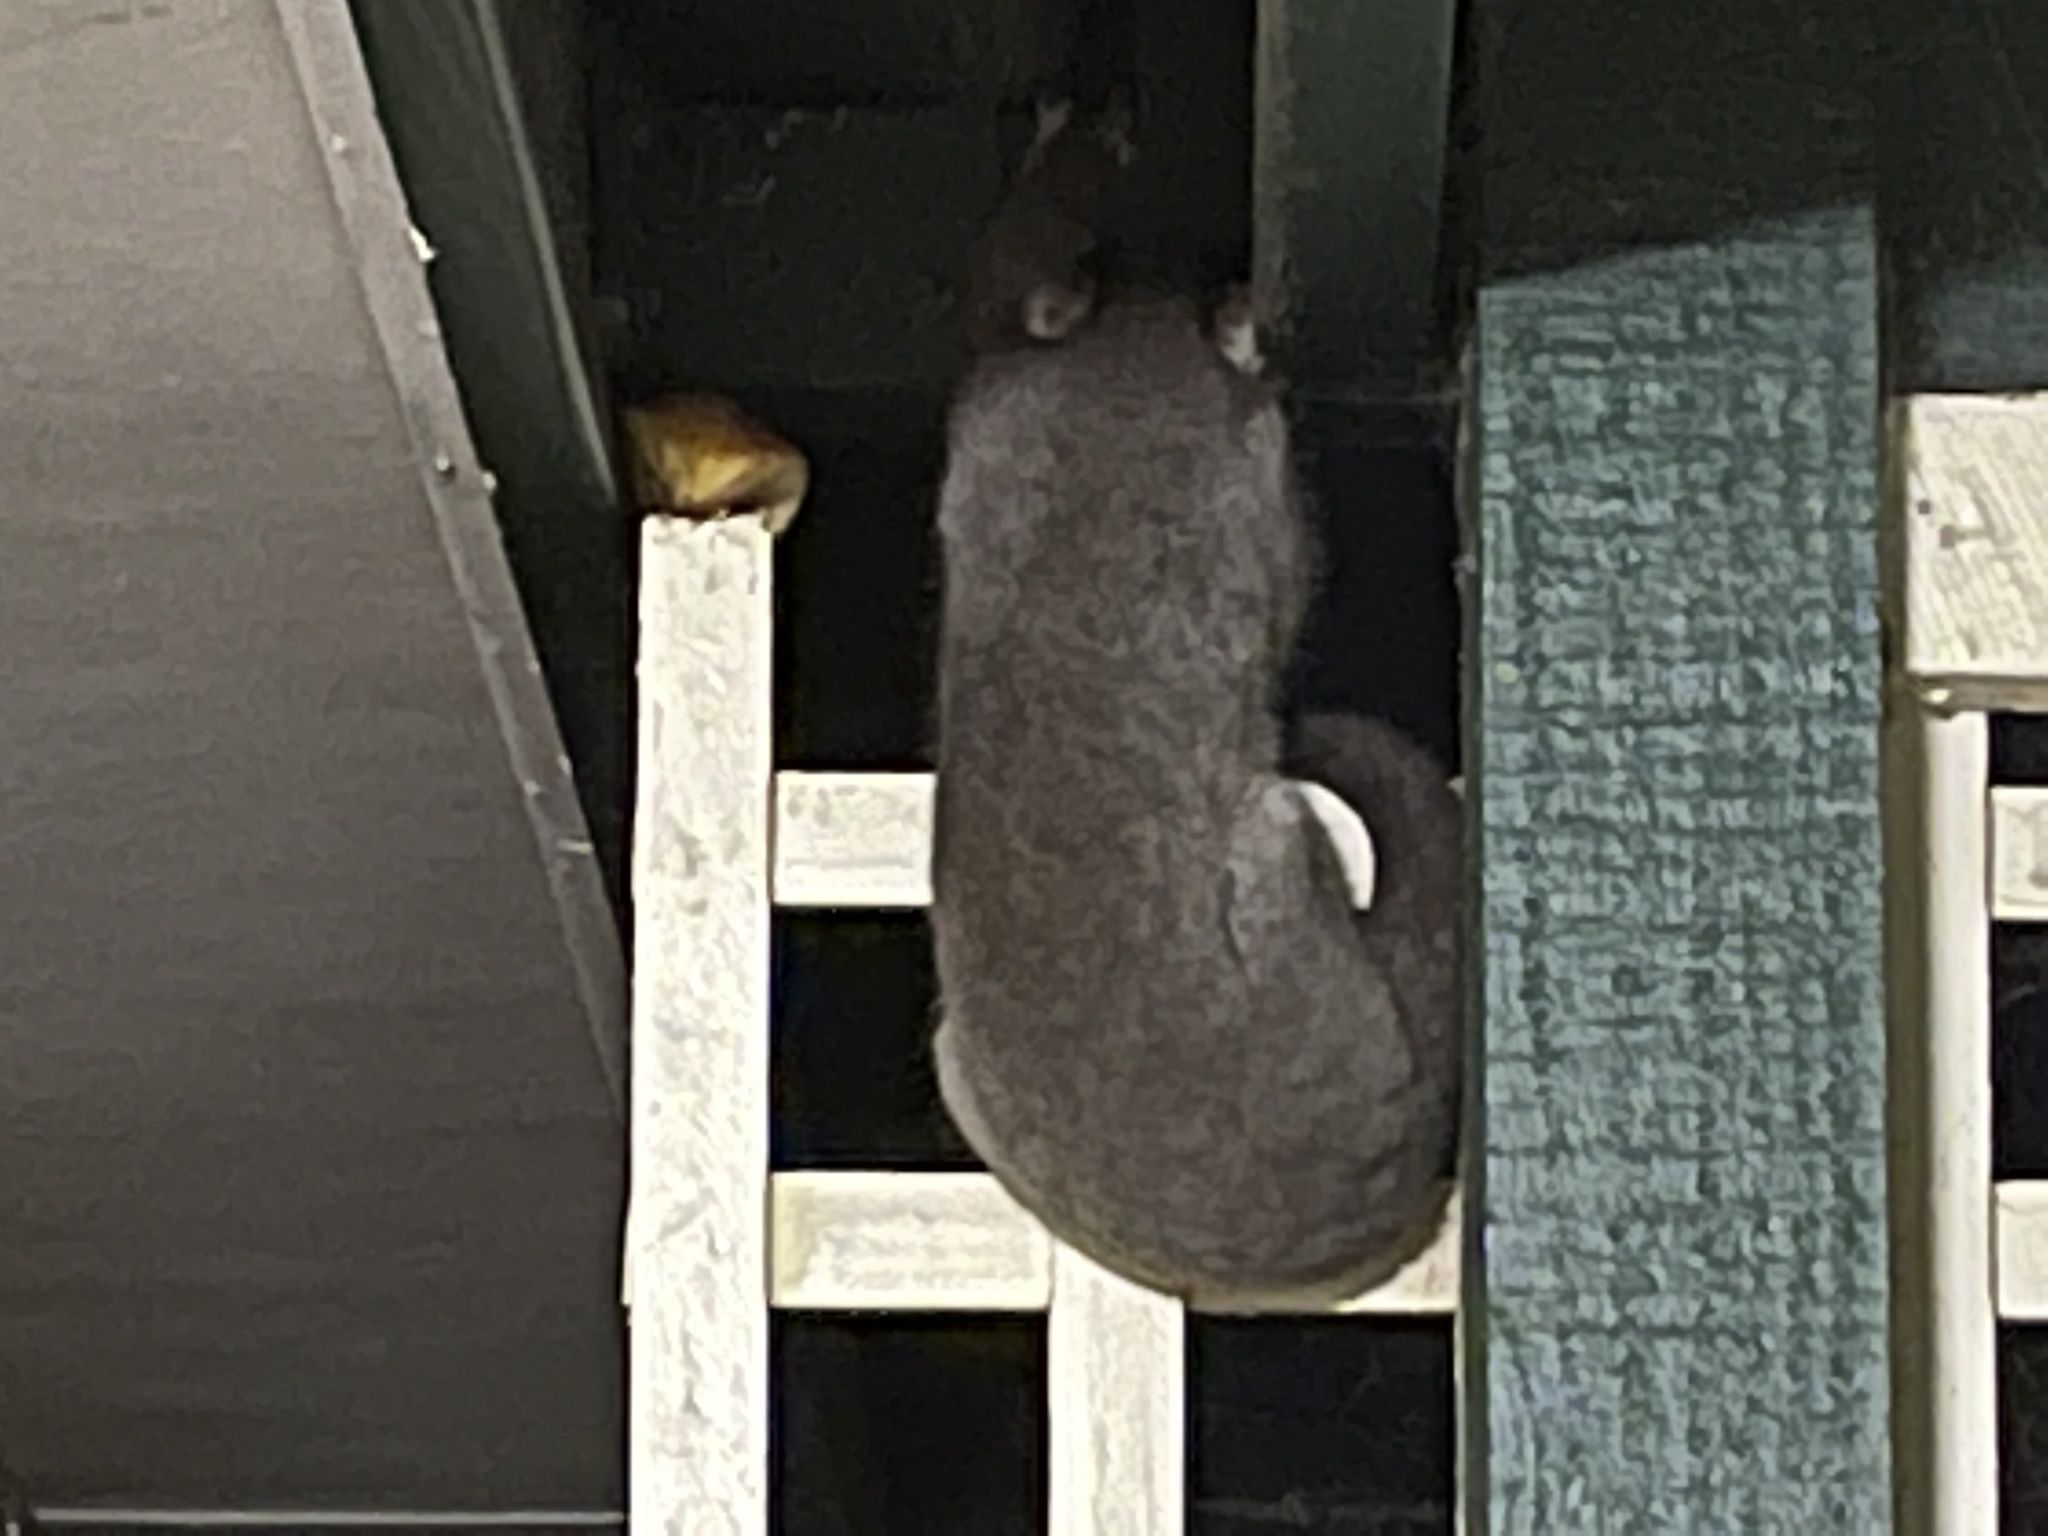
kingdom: Animalia
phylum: Chordata
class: Mammalia
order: Diprotodontia
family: Phalangeridae
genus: Trichosurus
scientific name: Trichosurus vulpecula
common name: Common brushtail
